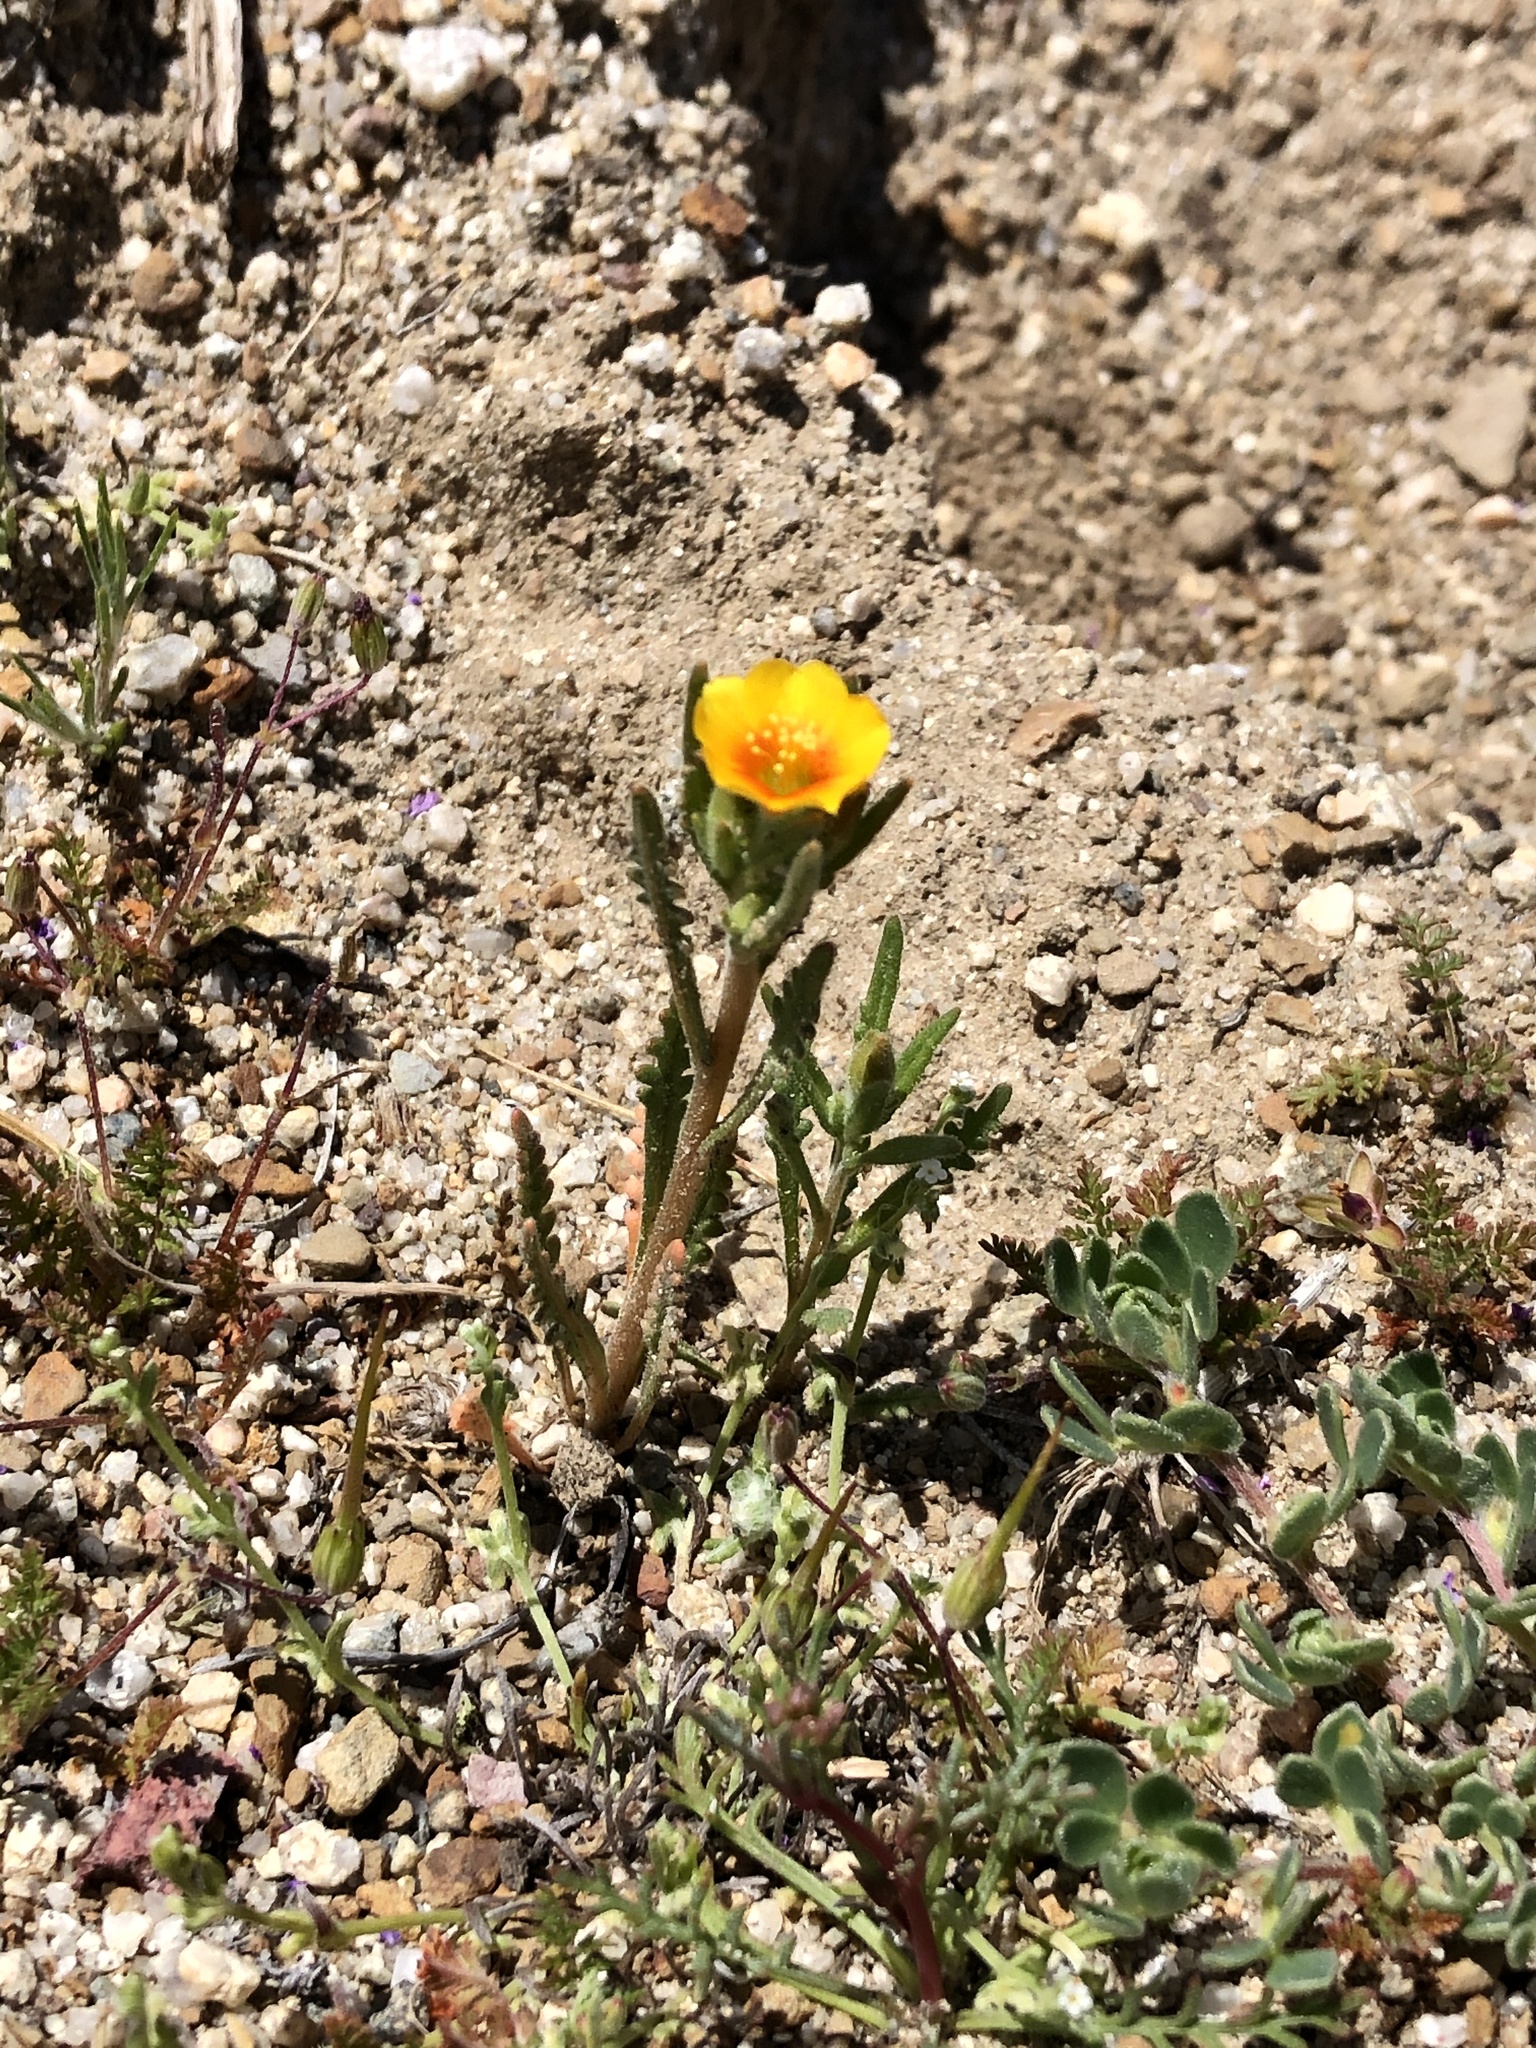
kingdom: Plantae
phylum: Tracheophyta
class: Magnoliopsida
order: Cornales
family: Loasaceae
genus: Mentzelia
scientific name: Mentzelia veatchiana
